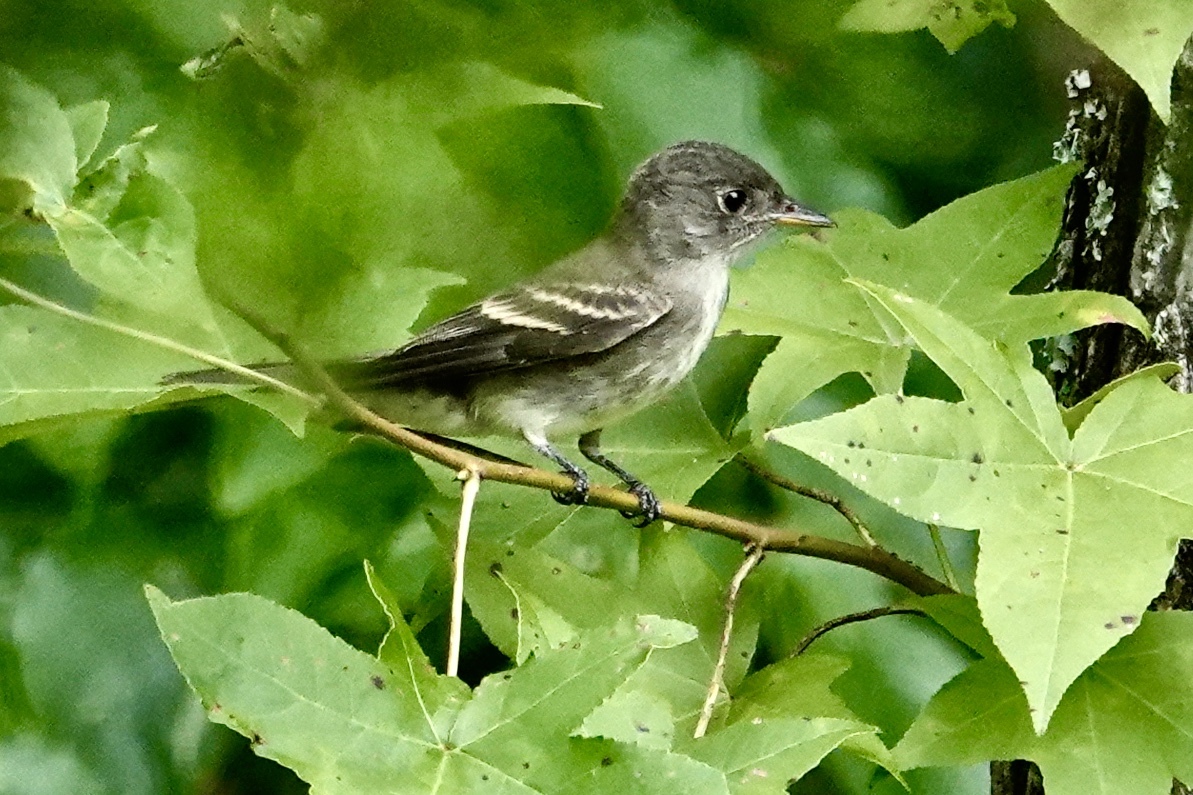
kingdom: Animalia
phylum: Chordata
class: Aves
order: Passeriformes
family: Tyrannidae
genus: Contopus
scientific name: Contopus virens
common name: Eastern wood-pewee
